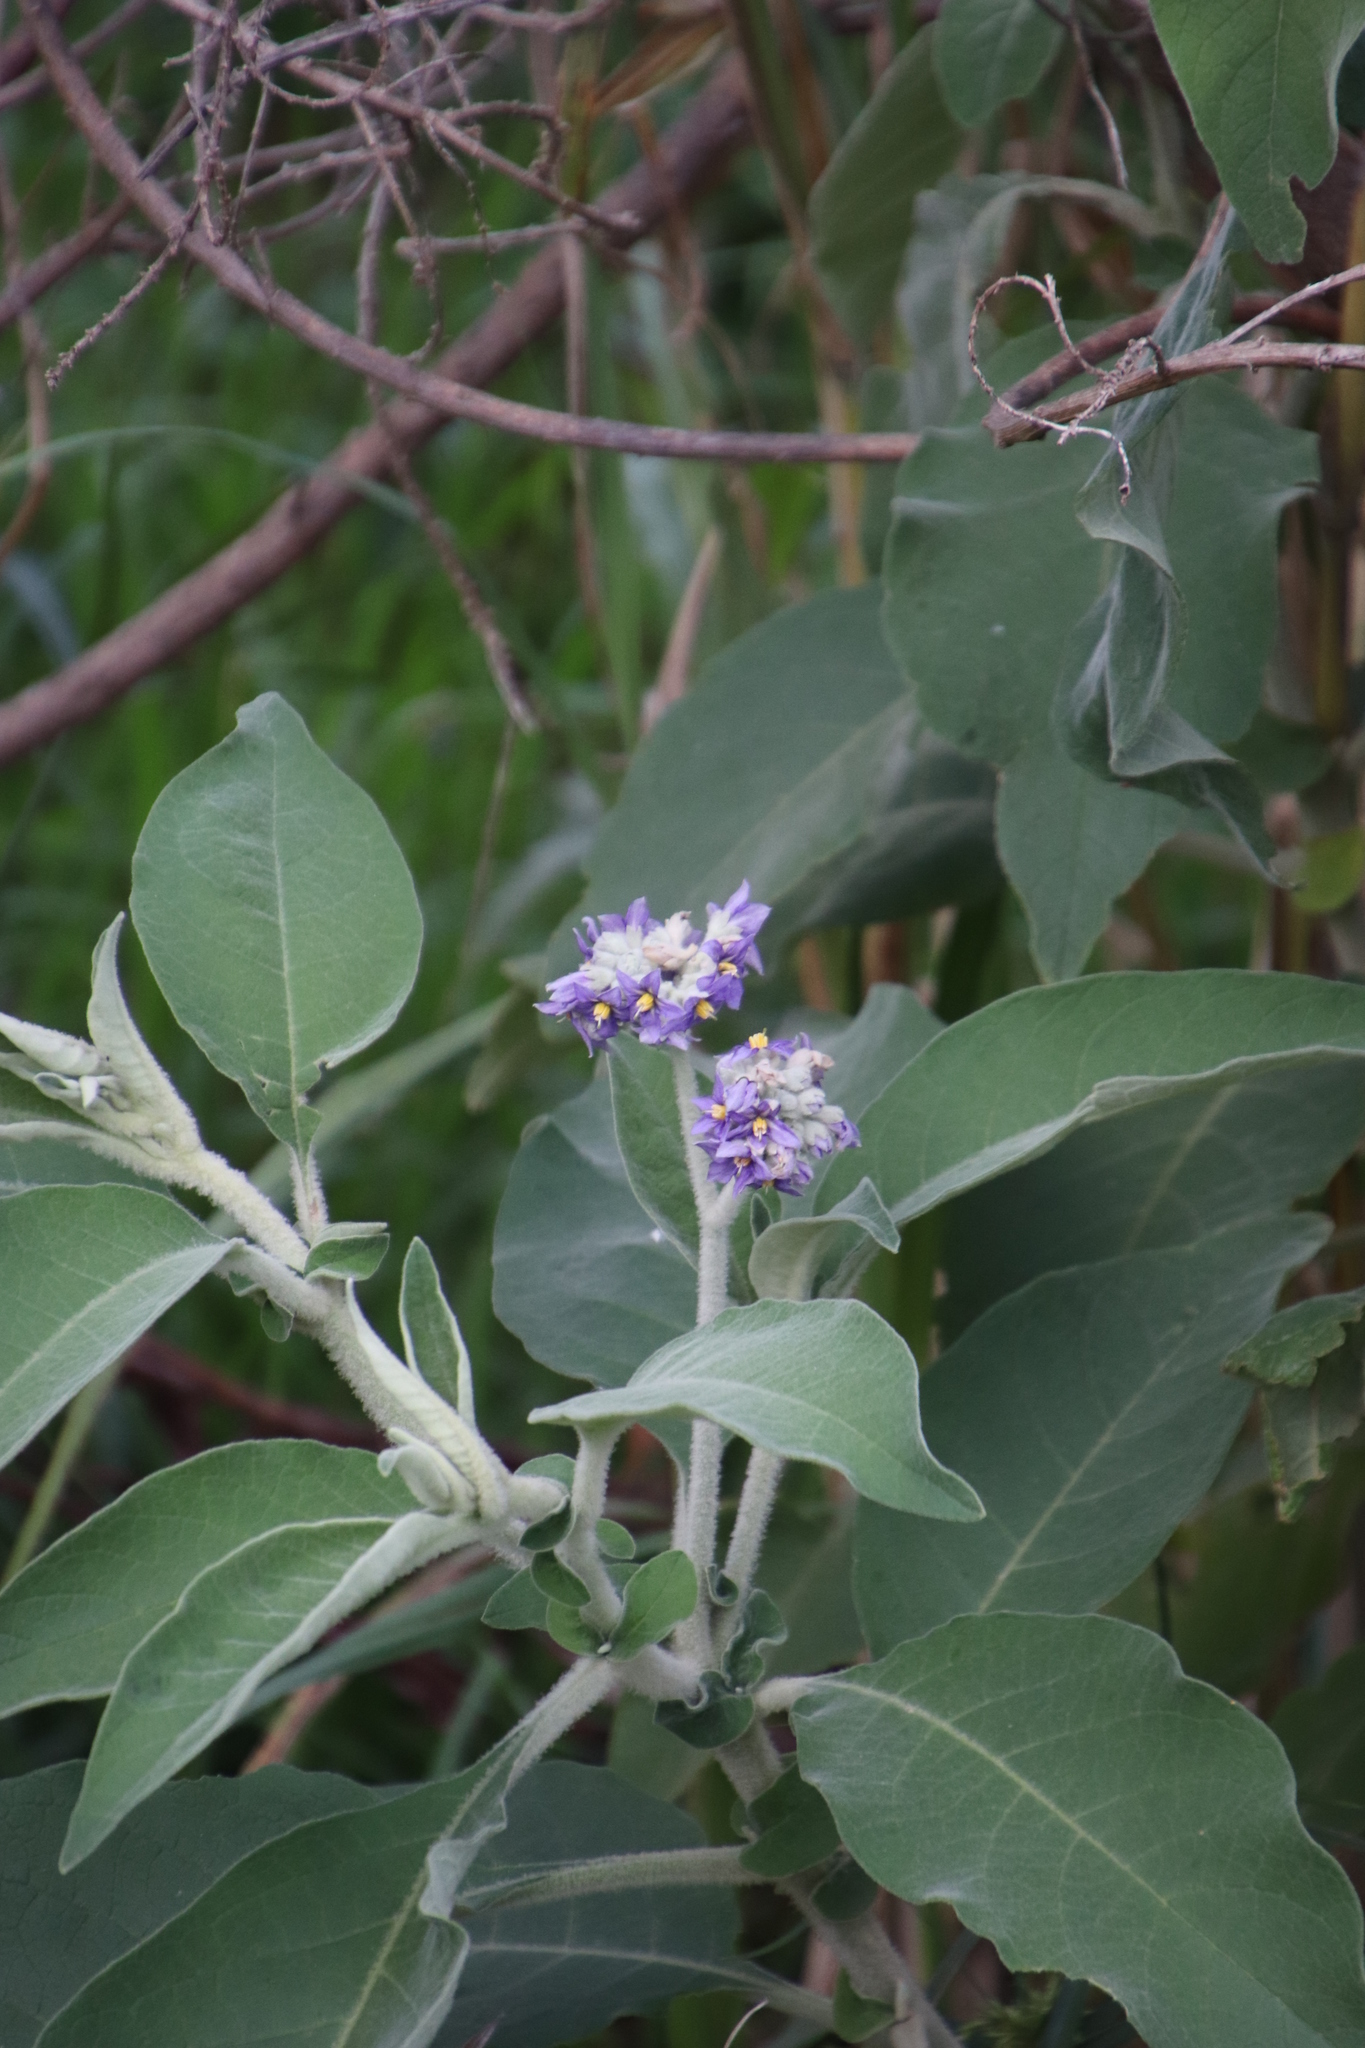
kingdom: Plantae
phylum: Tracheophyta
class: Magnoliopsida
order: Solanales
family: Solanaceae
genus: Solanum
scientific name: Solanum mauritianum
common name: Earleaf nightshade
